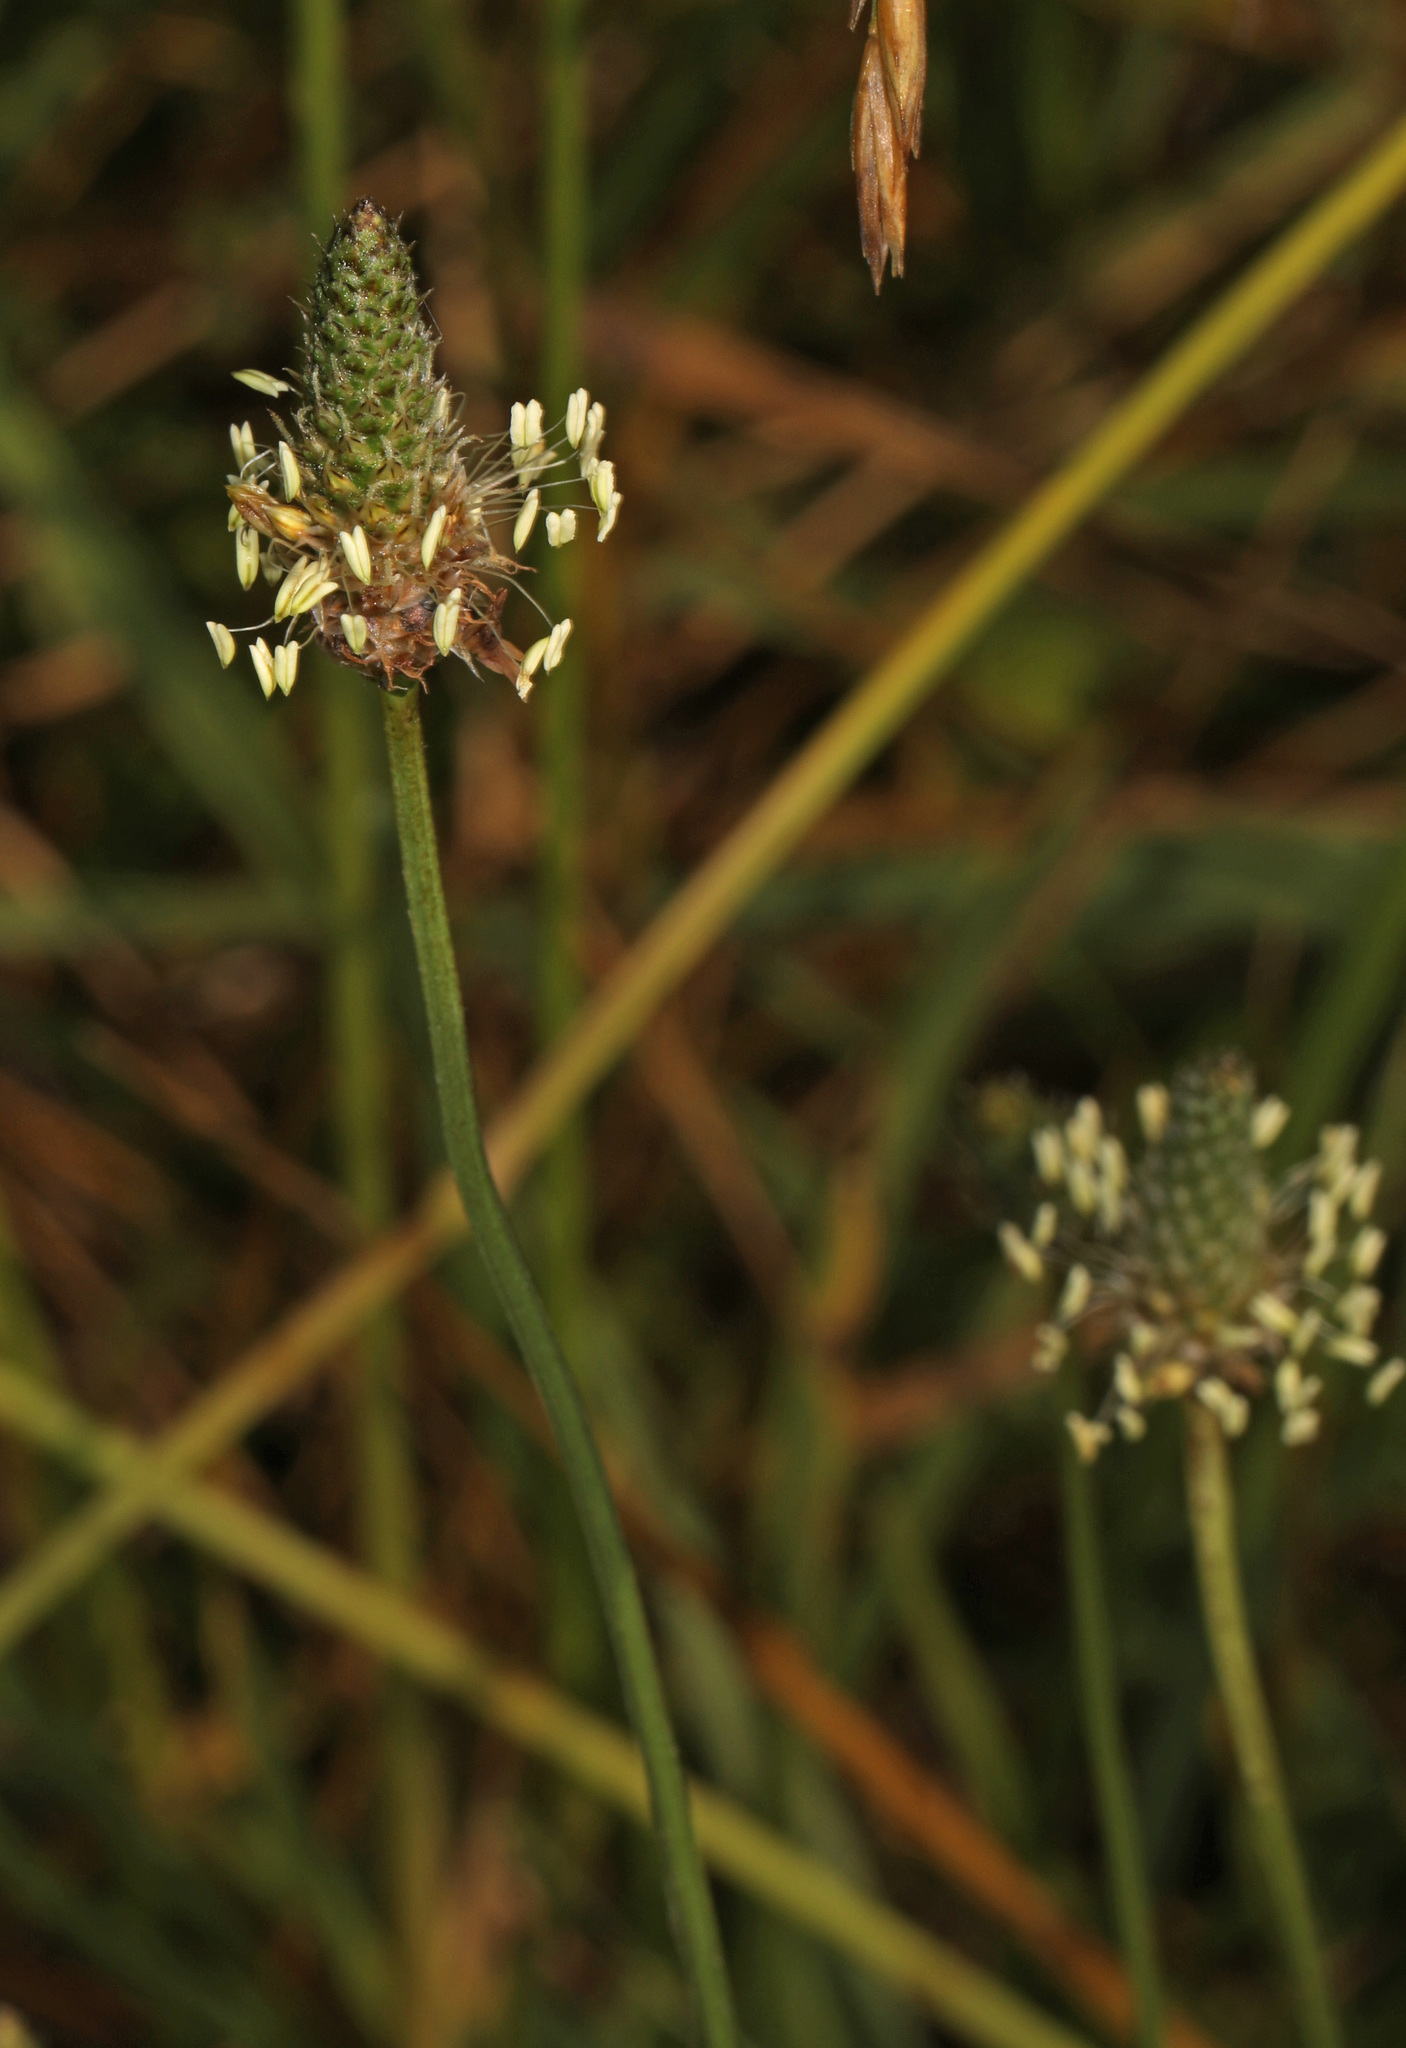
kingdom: Plantae
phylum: Tracheophyta
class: Magnoliopsida
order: Lamiales
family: Plantaginaceae
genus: Plantago
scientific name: Plantago lanceolata
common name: Ribwort plantain
